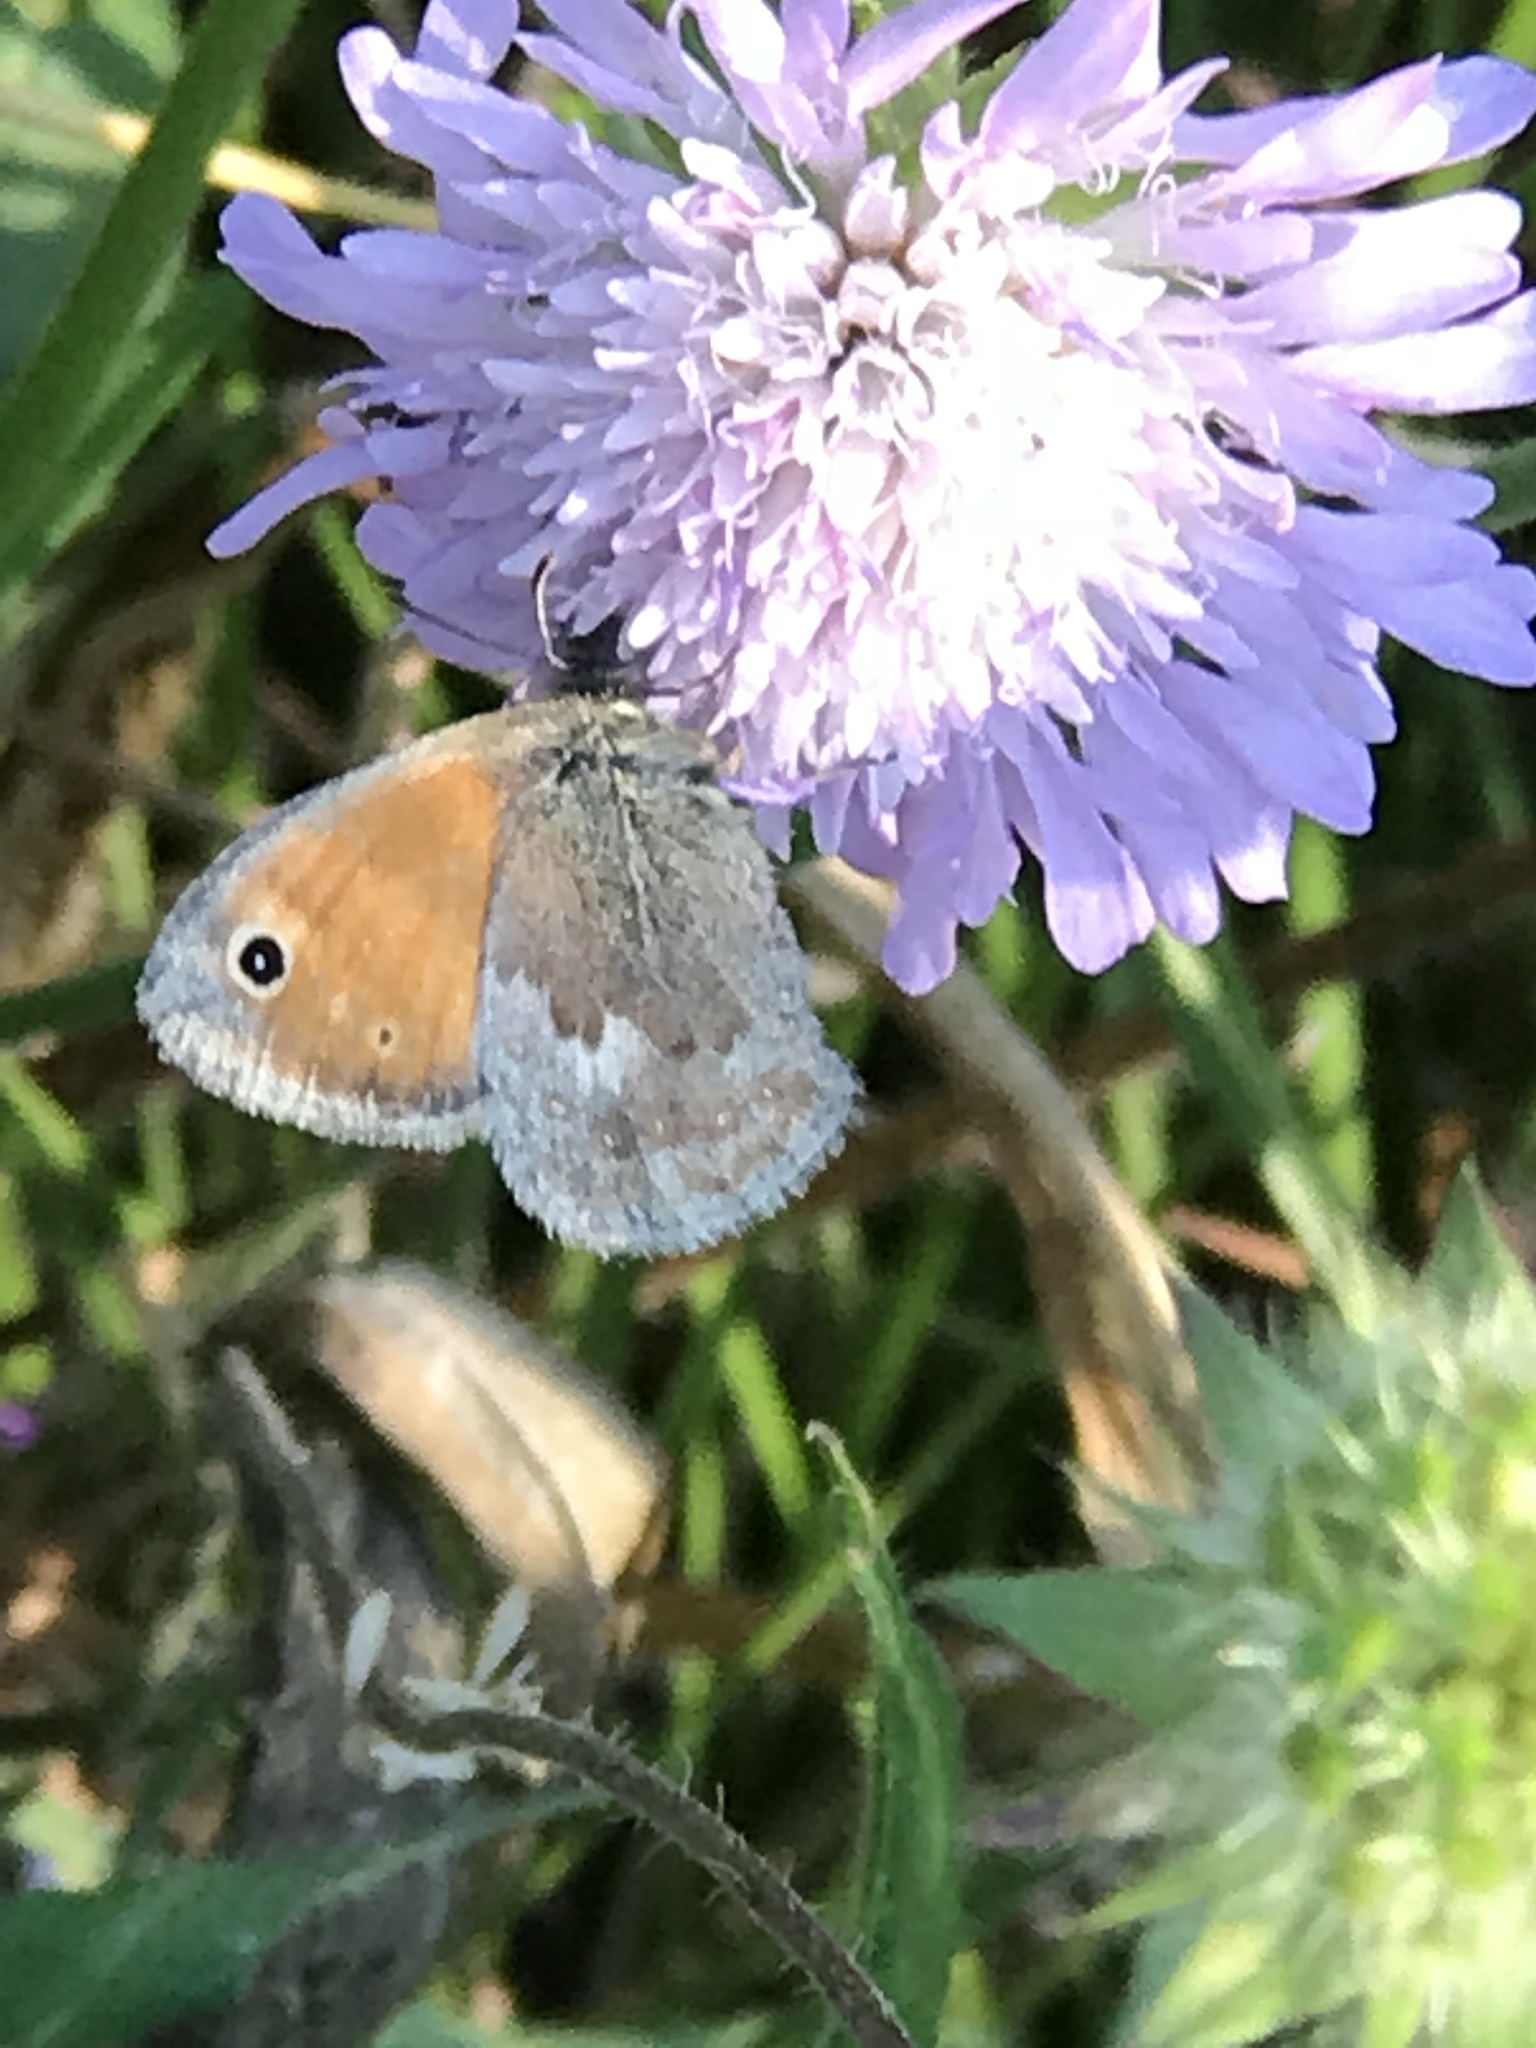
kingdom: Animalia
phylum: Arthropoda
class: Insecta
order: Lepidoptera
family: Nymphalidae
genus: Coenonympha
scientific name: Coenonympha pamphilus
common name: Small heath
